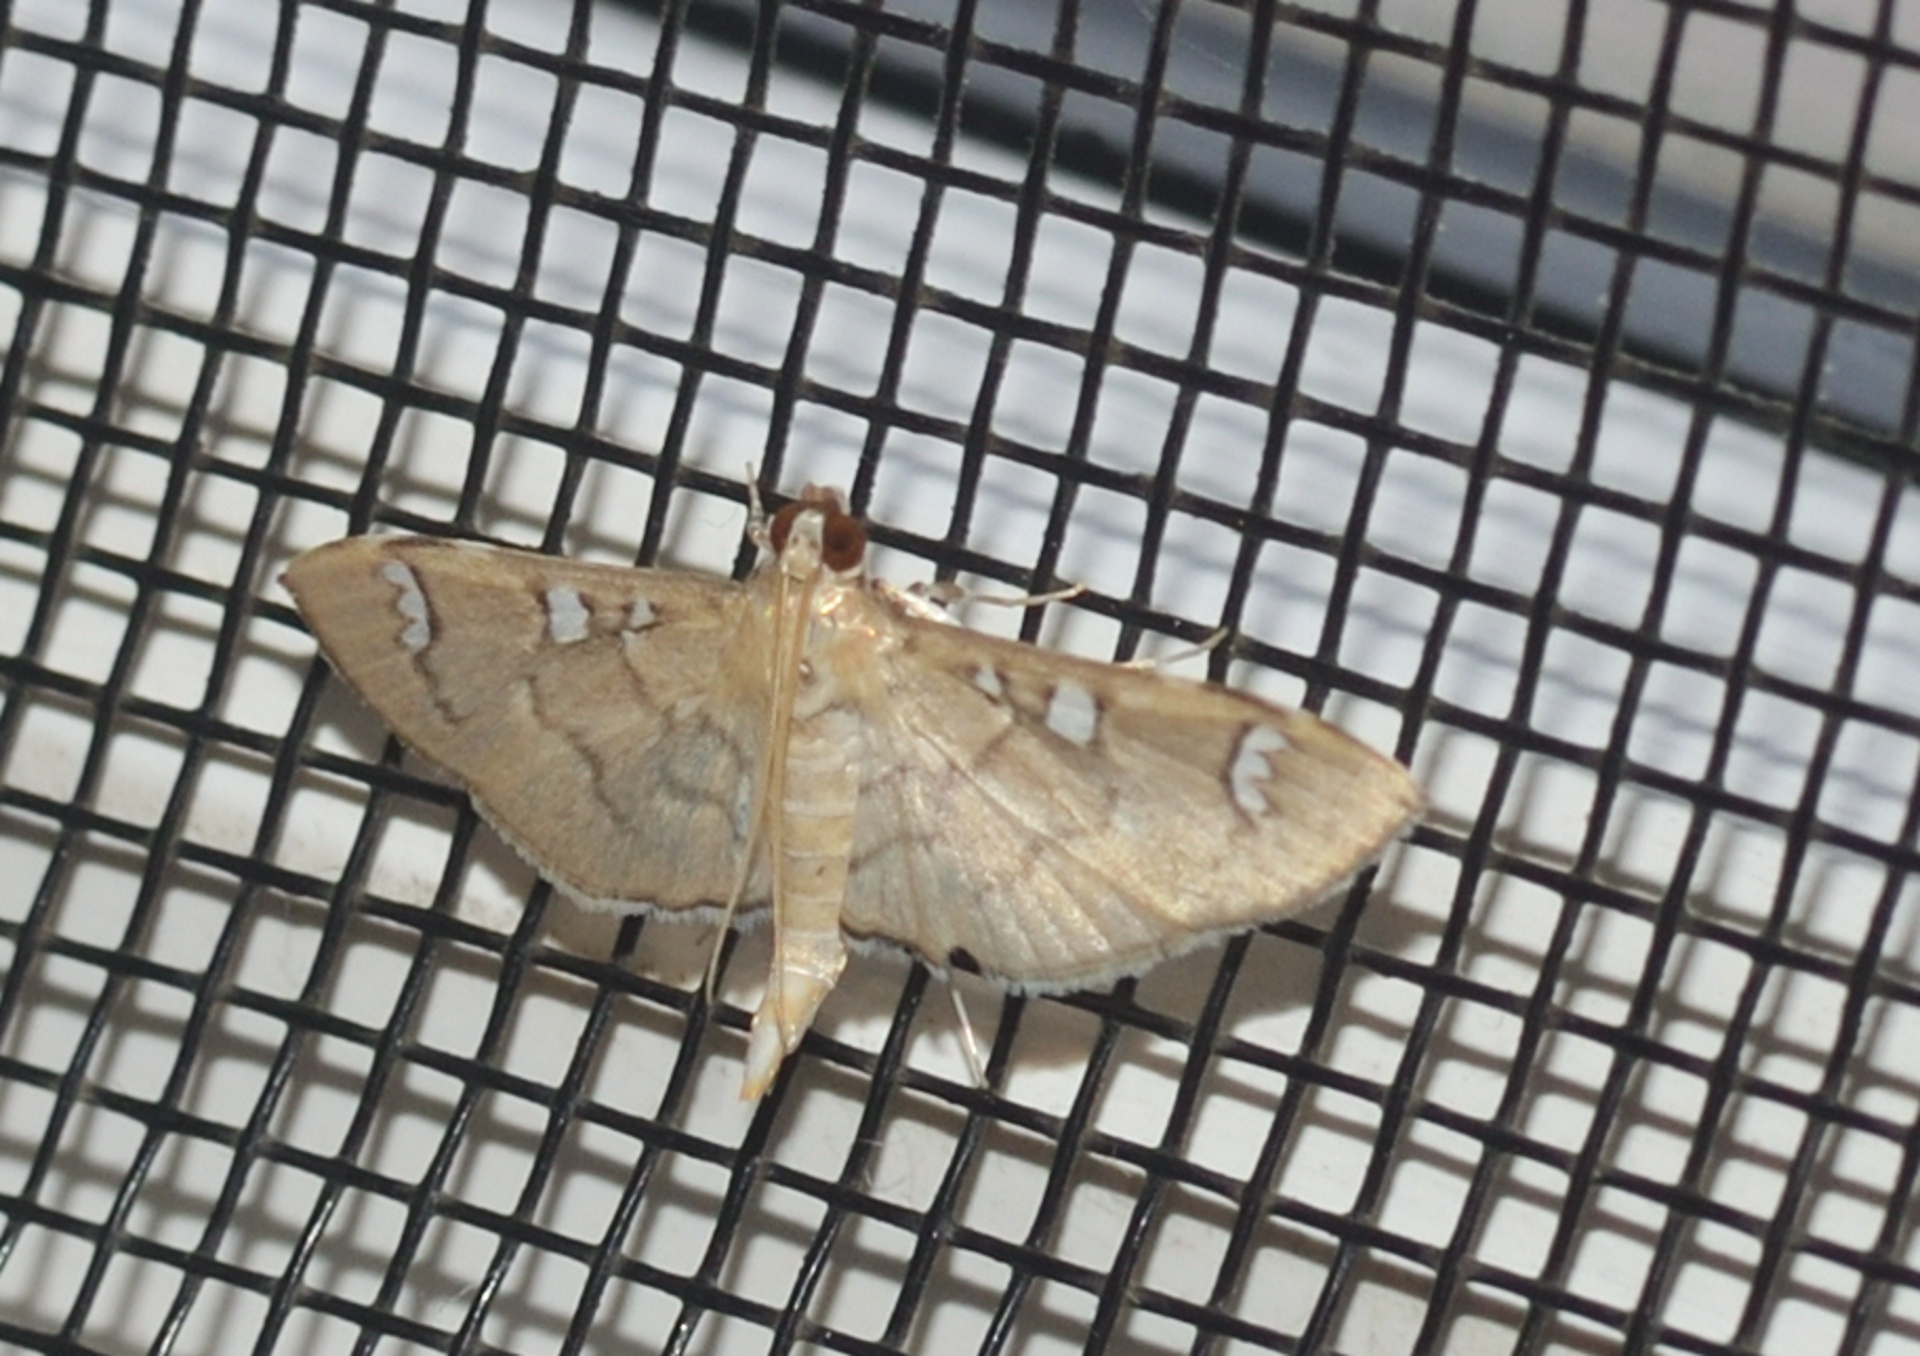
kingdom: Animalia
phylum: Arthropoda
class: Insecta
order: Lepidoptera
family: Crambidae
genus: Samea
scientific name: Samea castoralis
